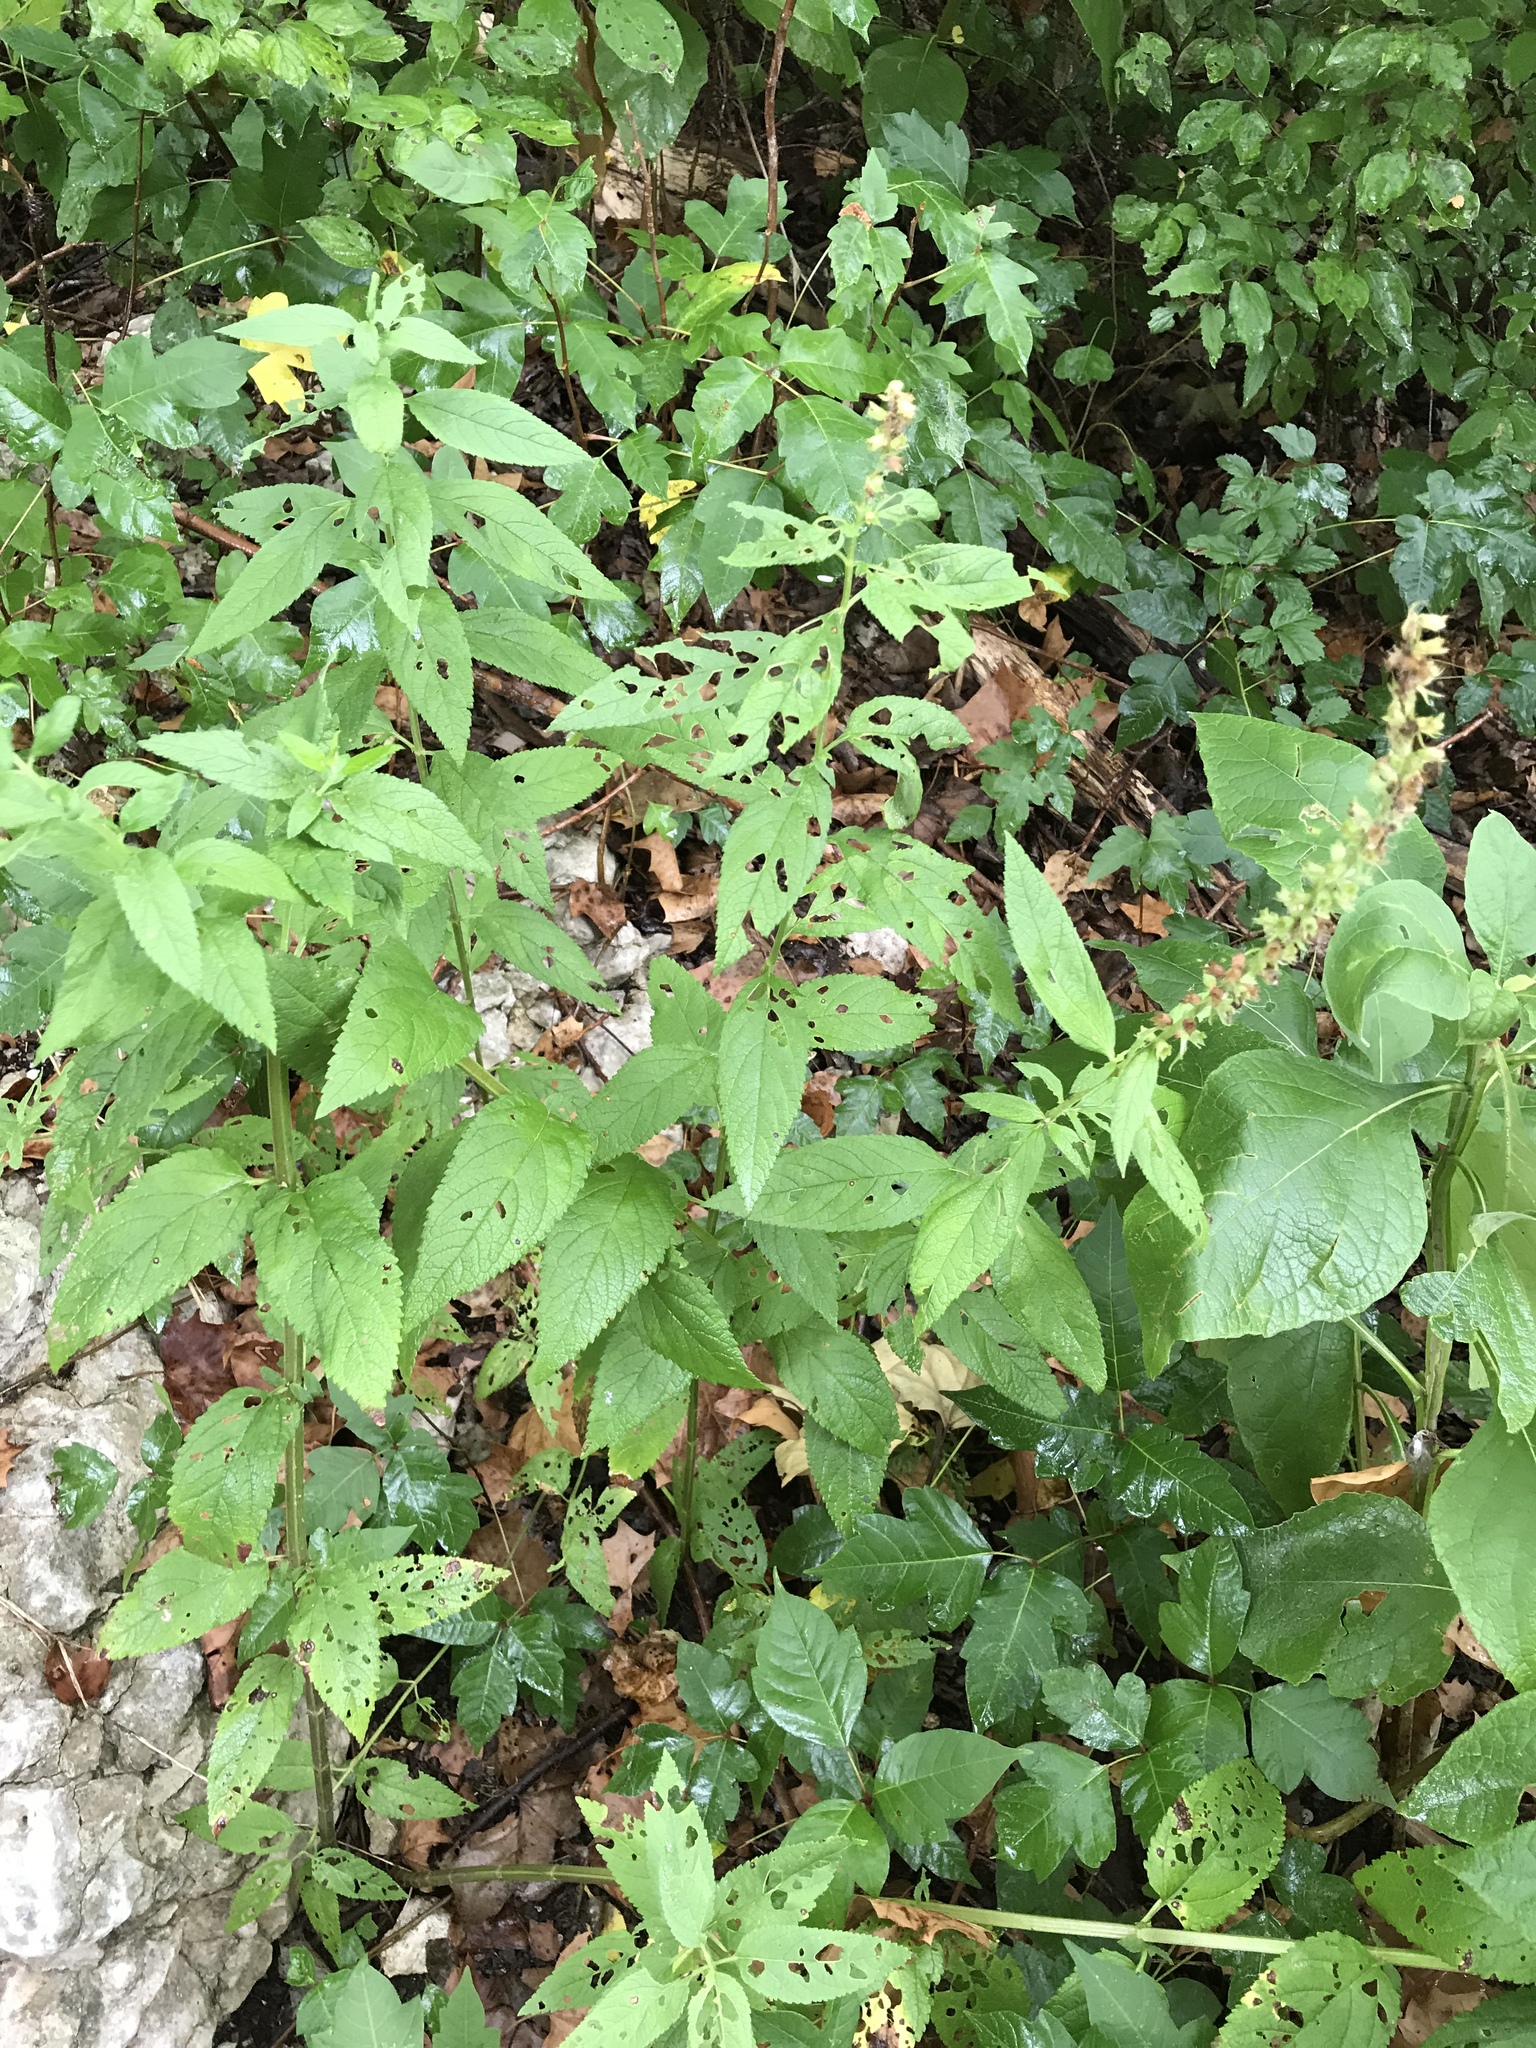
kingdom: Plantae
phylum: Tracheophyta
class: Magnoliopsida
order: Lamiales
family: Lamiaceae
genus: Teucrium
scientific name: Teucrium canadense
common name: American germander
